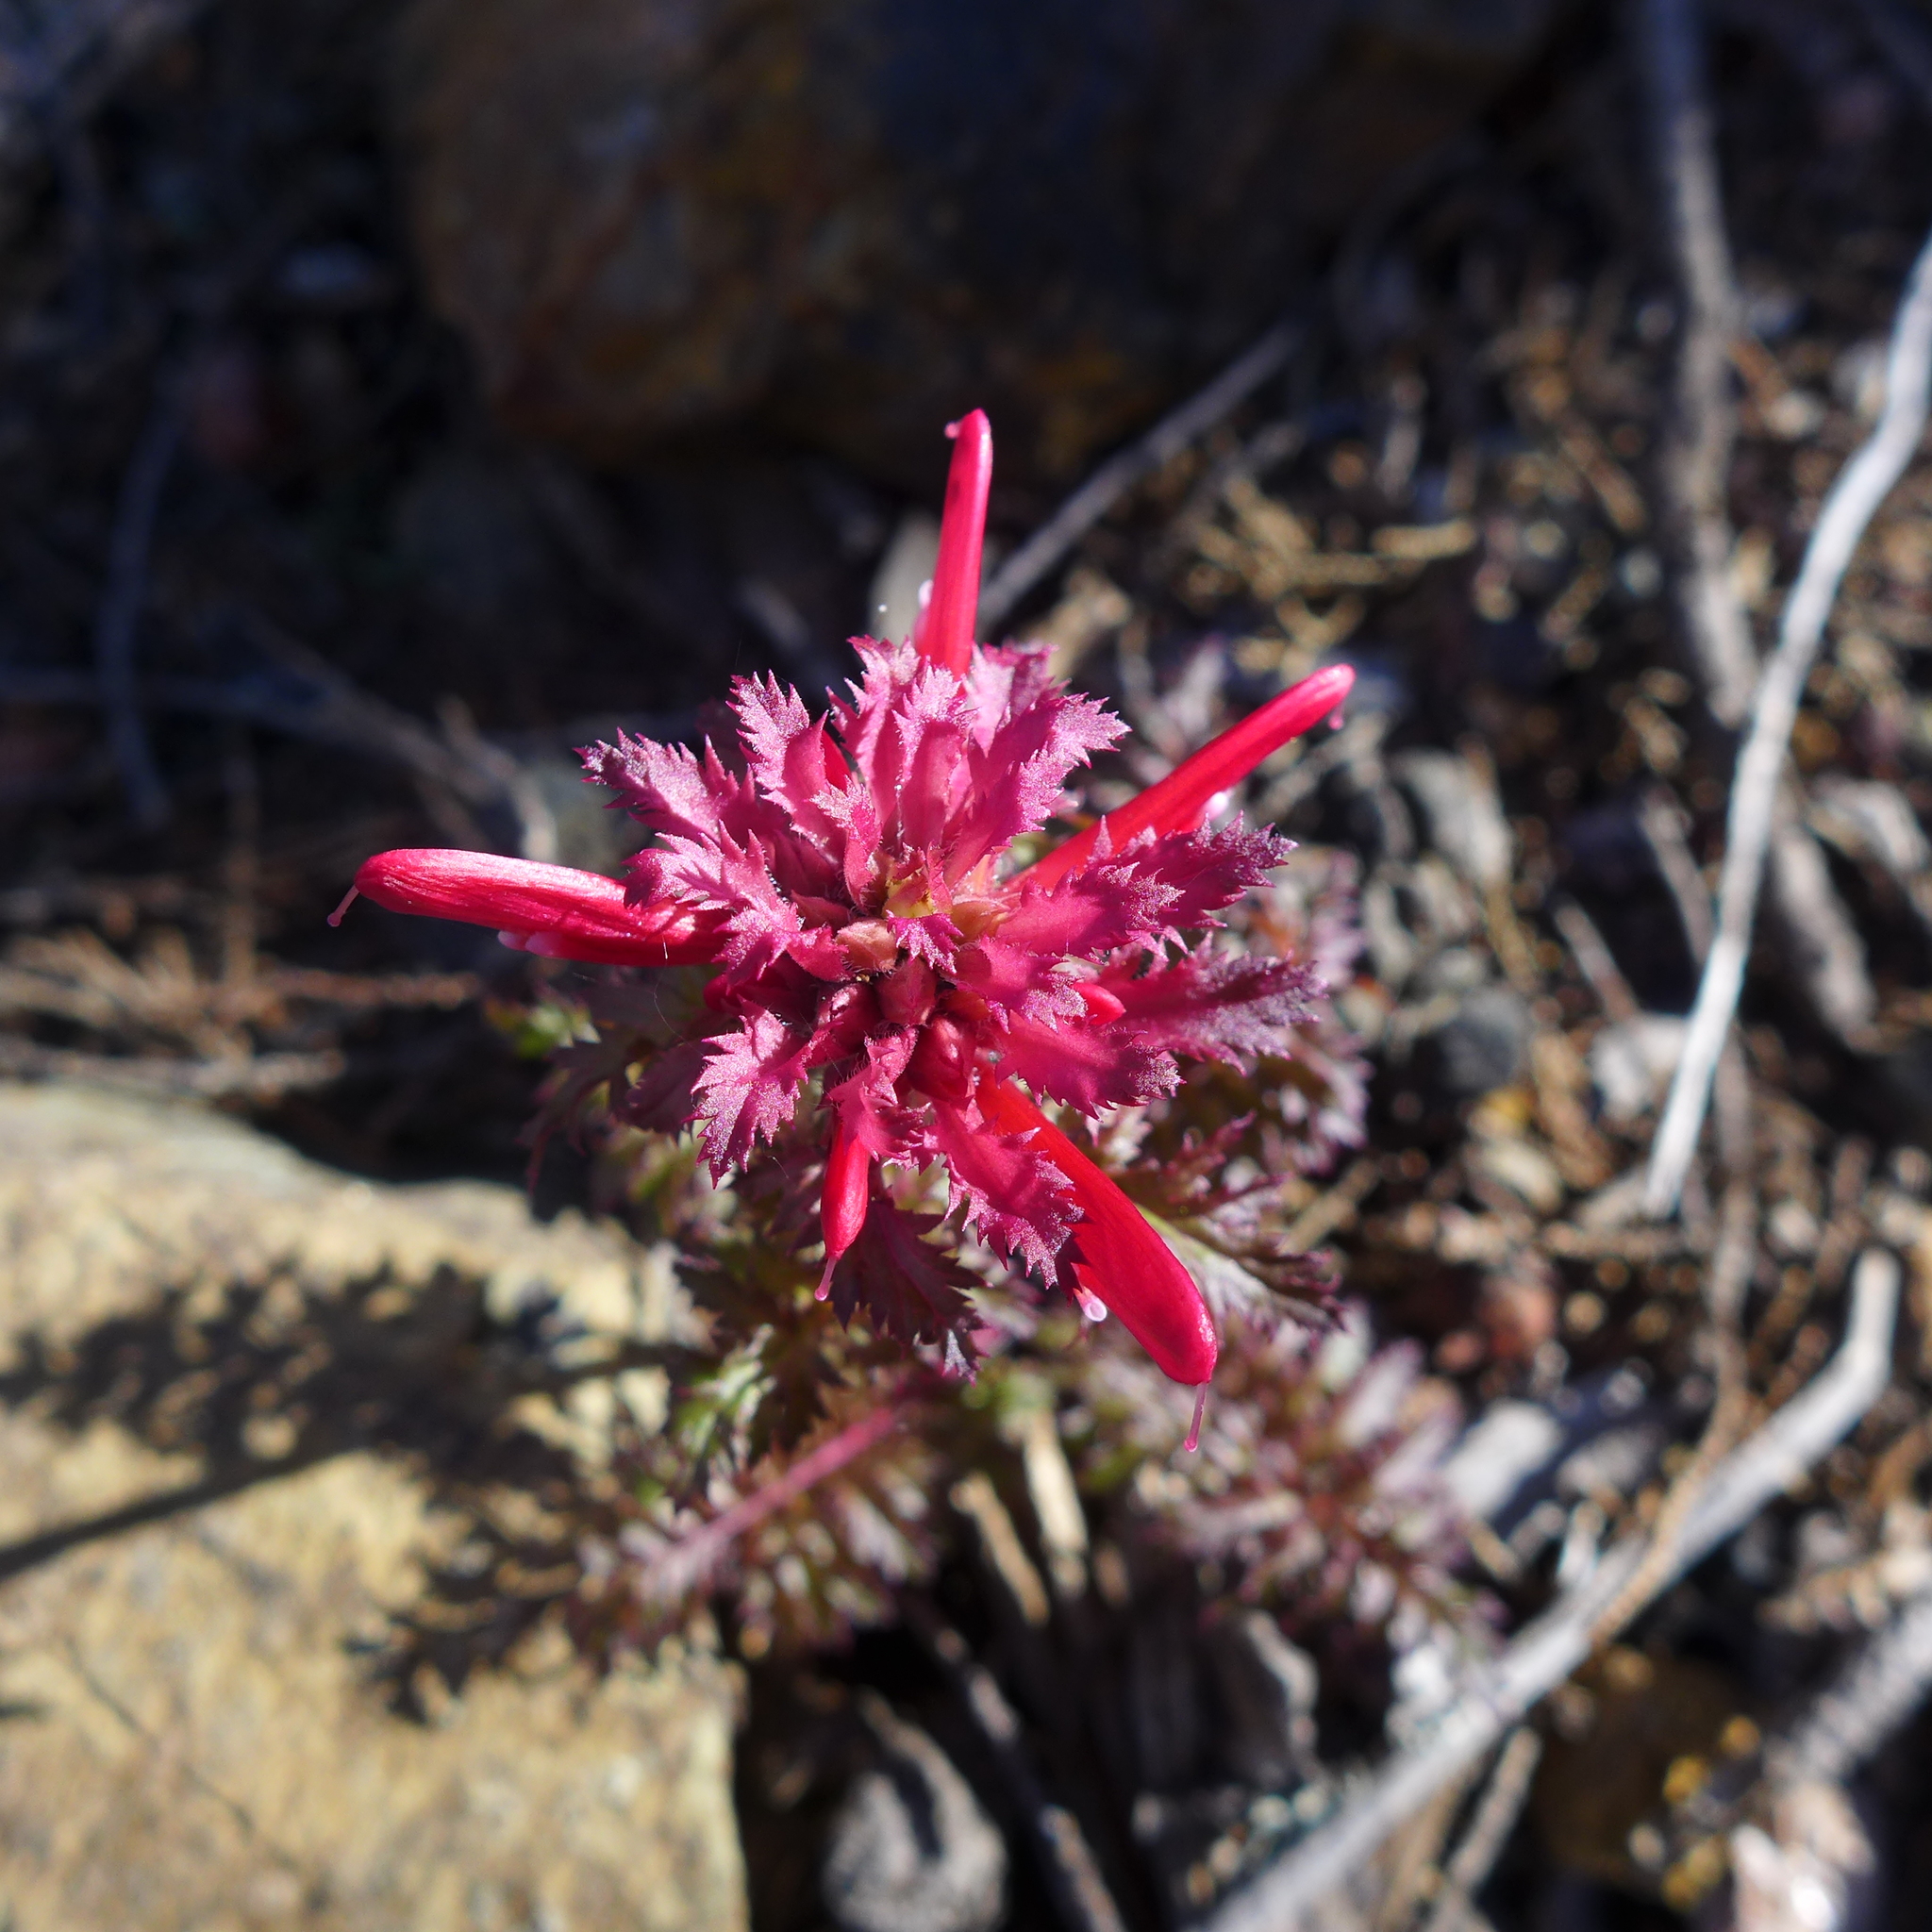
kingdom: Plantae
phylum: Tracheophyta
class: Magnoliopsida
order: Lamiales
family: Orobanchaceae
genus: Pedicularis
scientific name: Pedicularis densiflora
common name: Indian warrior
